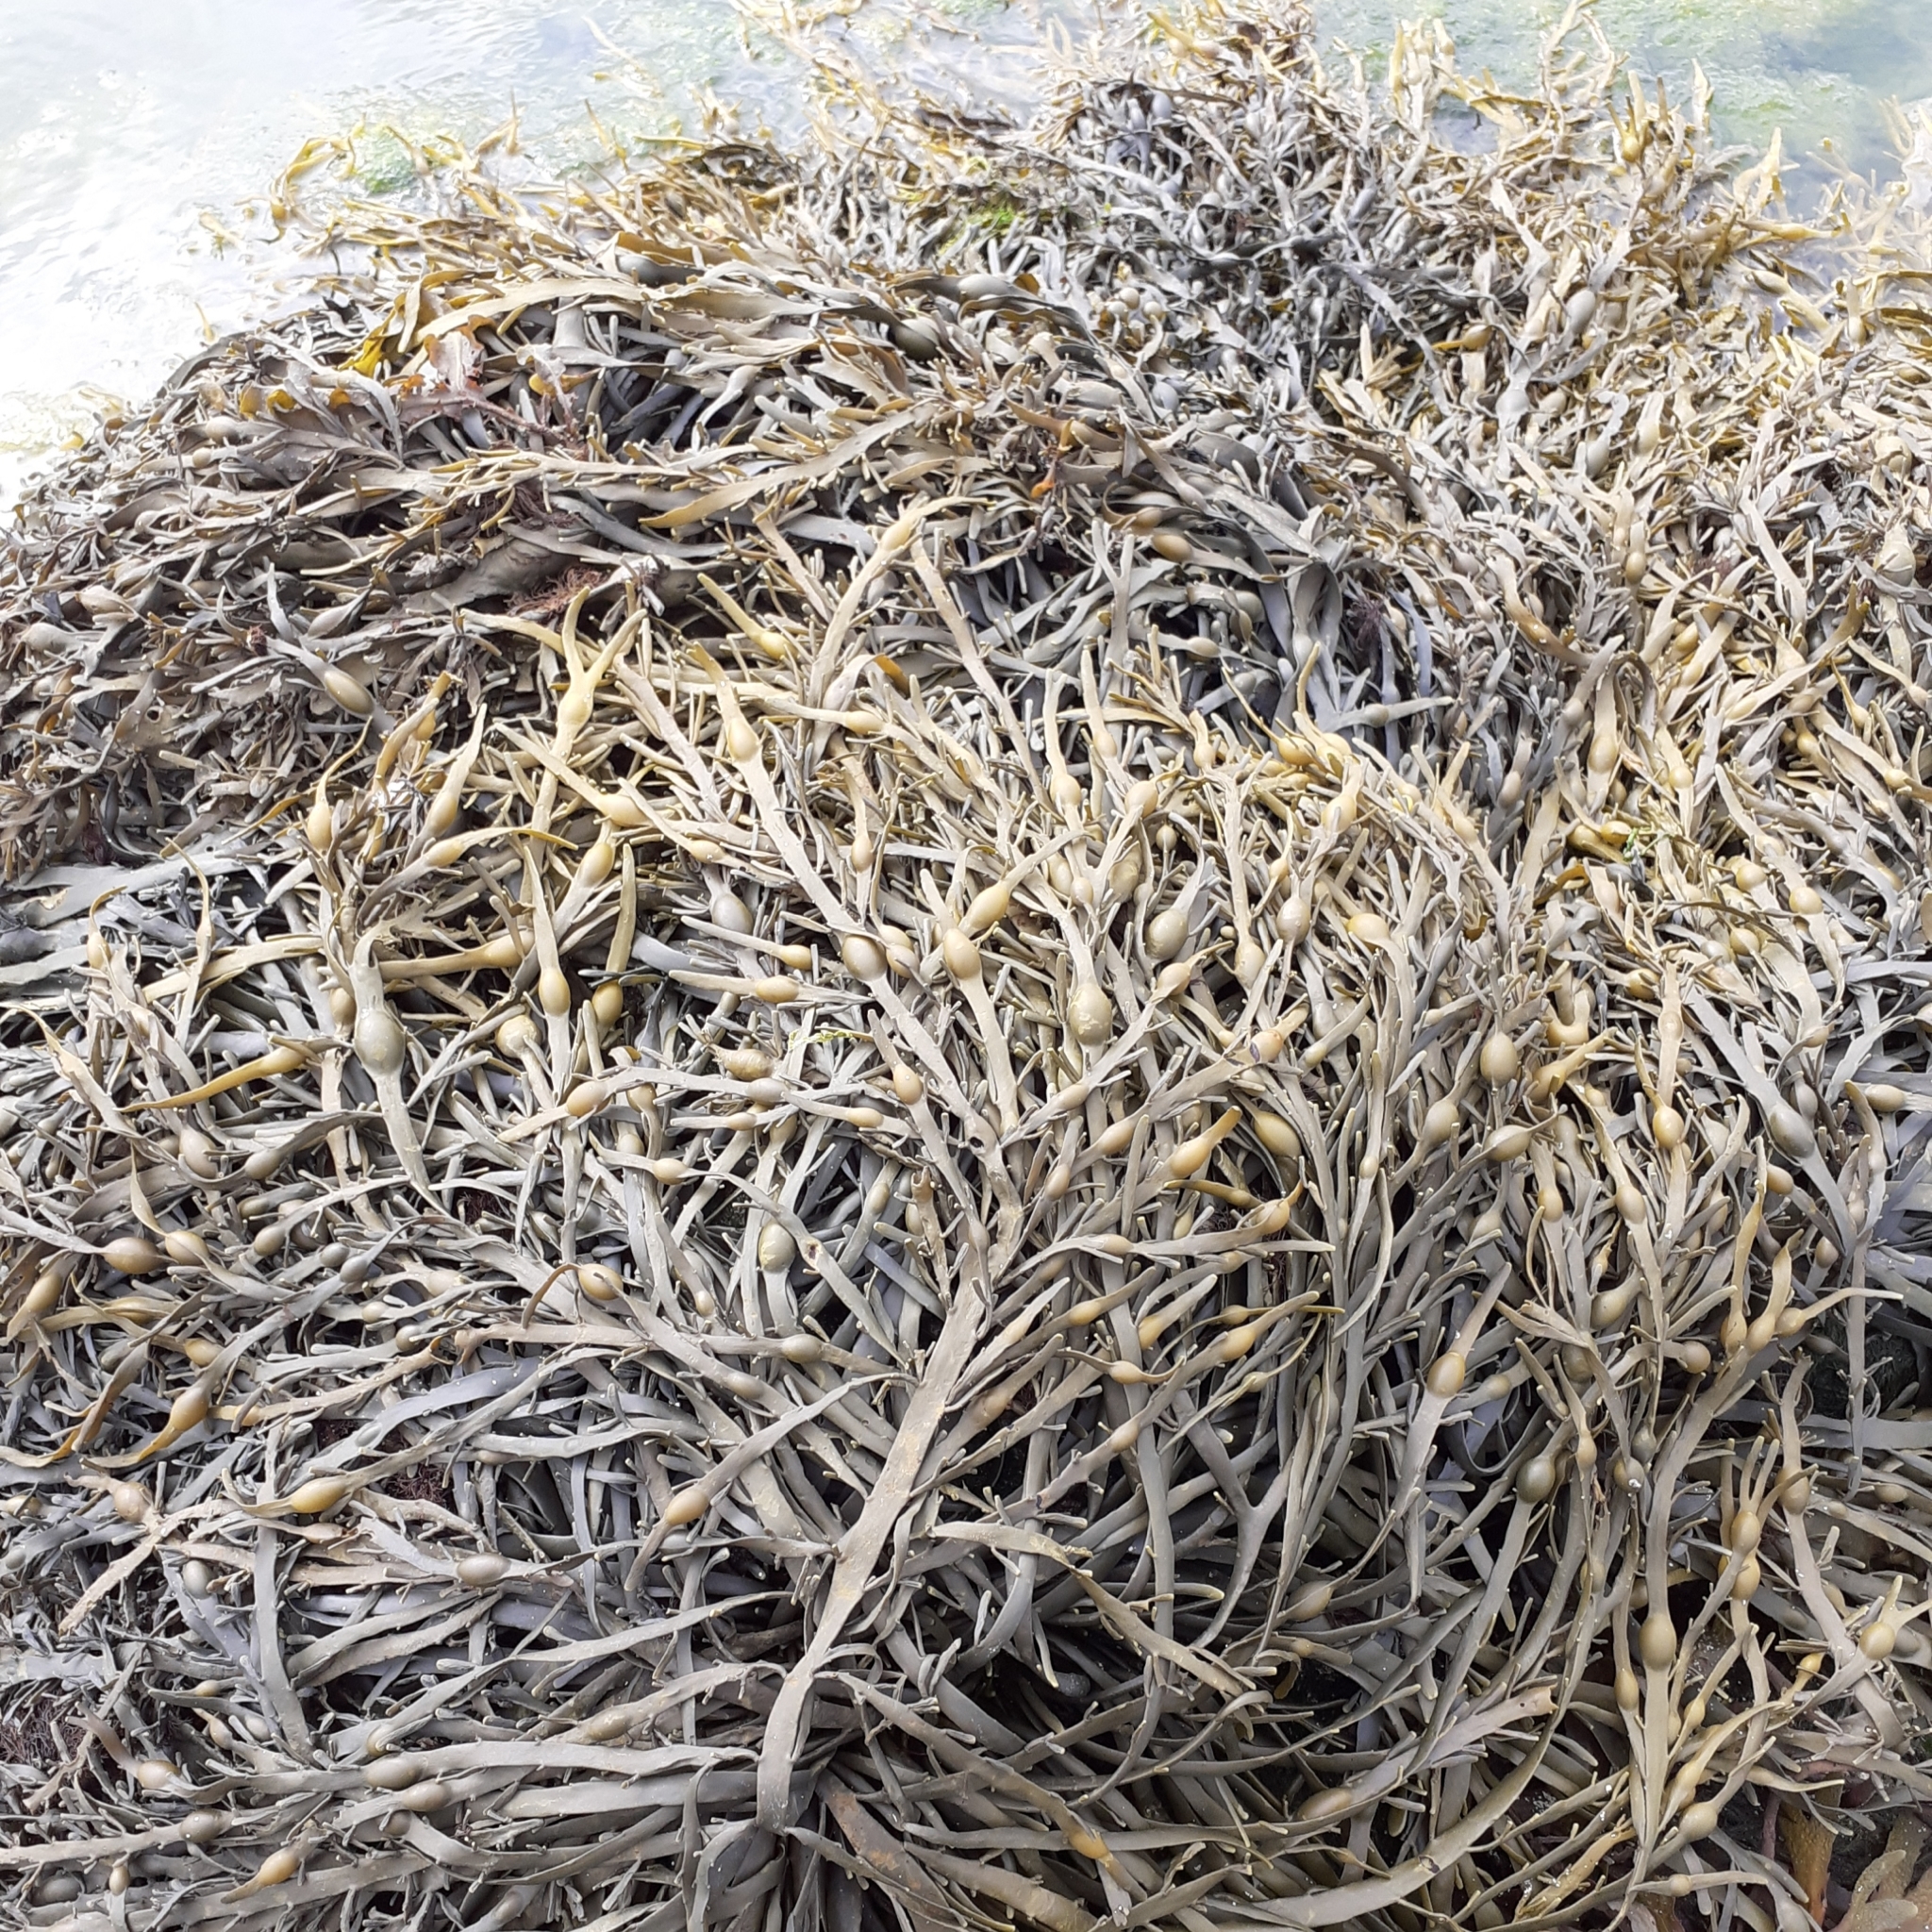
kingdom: Chromista
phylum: Ochrophyta
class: Phaeophyceae
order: Fucales
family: Fucaceae
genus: Ascophyllum
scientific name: Ascophyllum nodosum
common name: Knotted wrack
